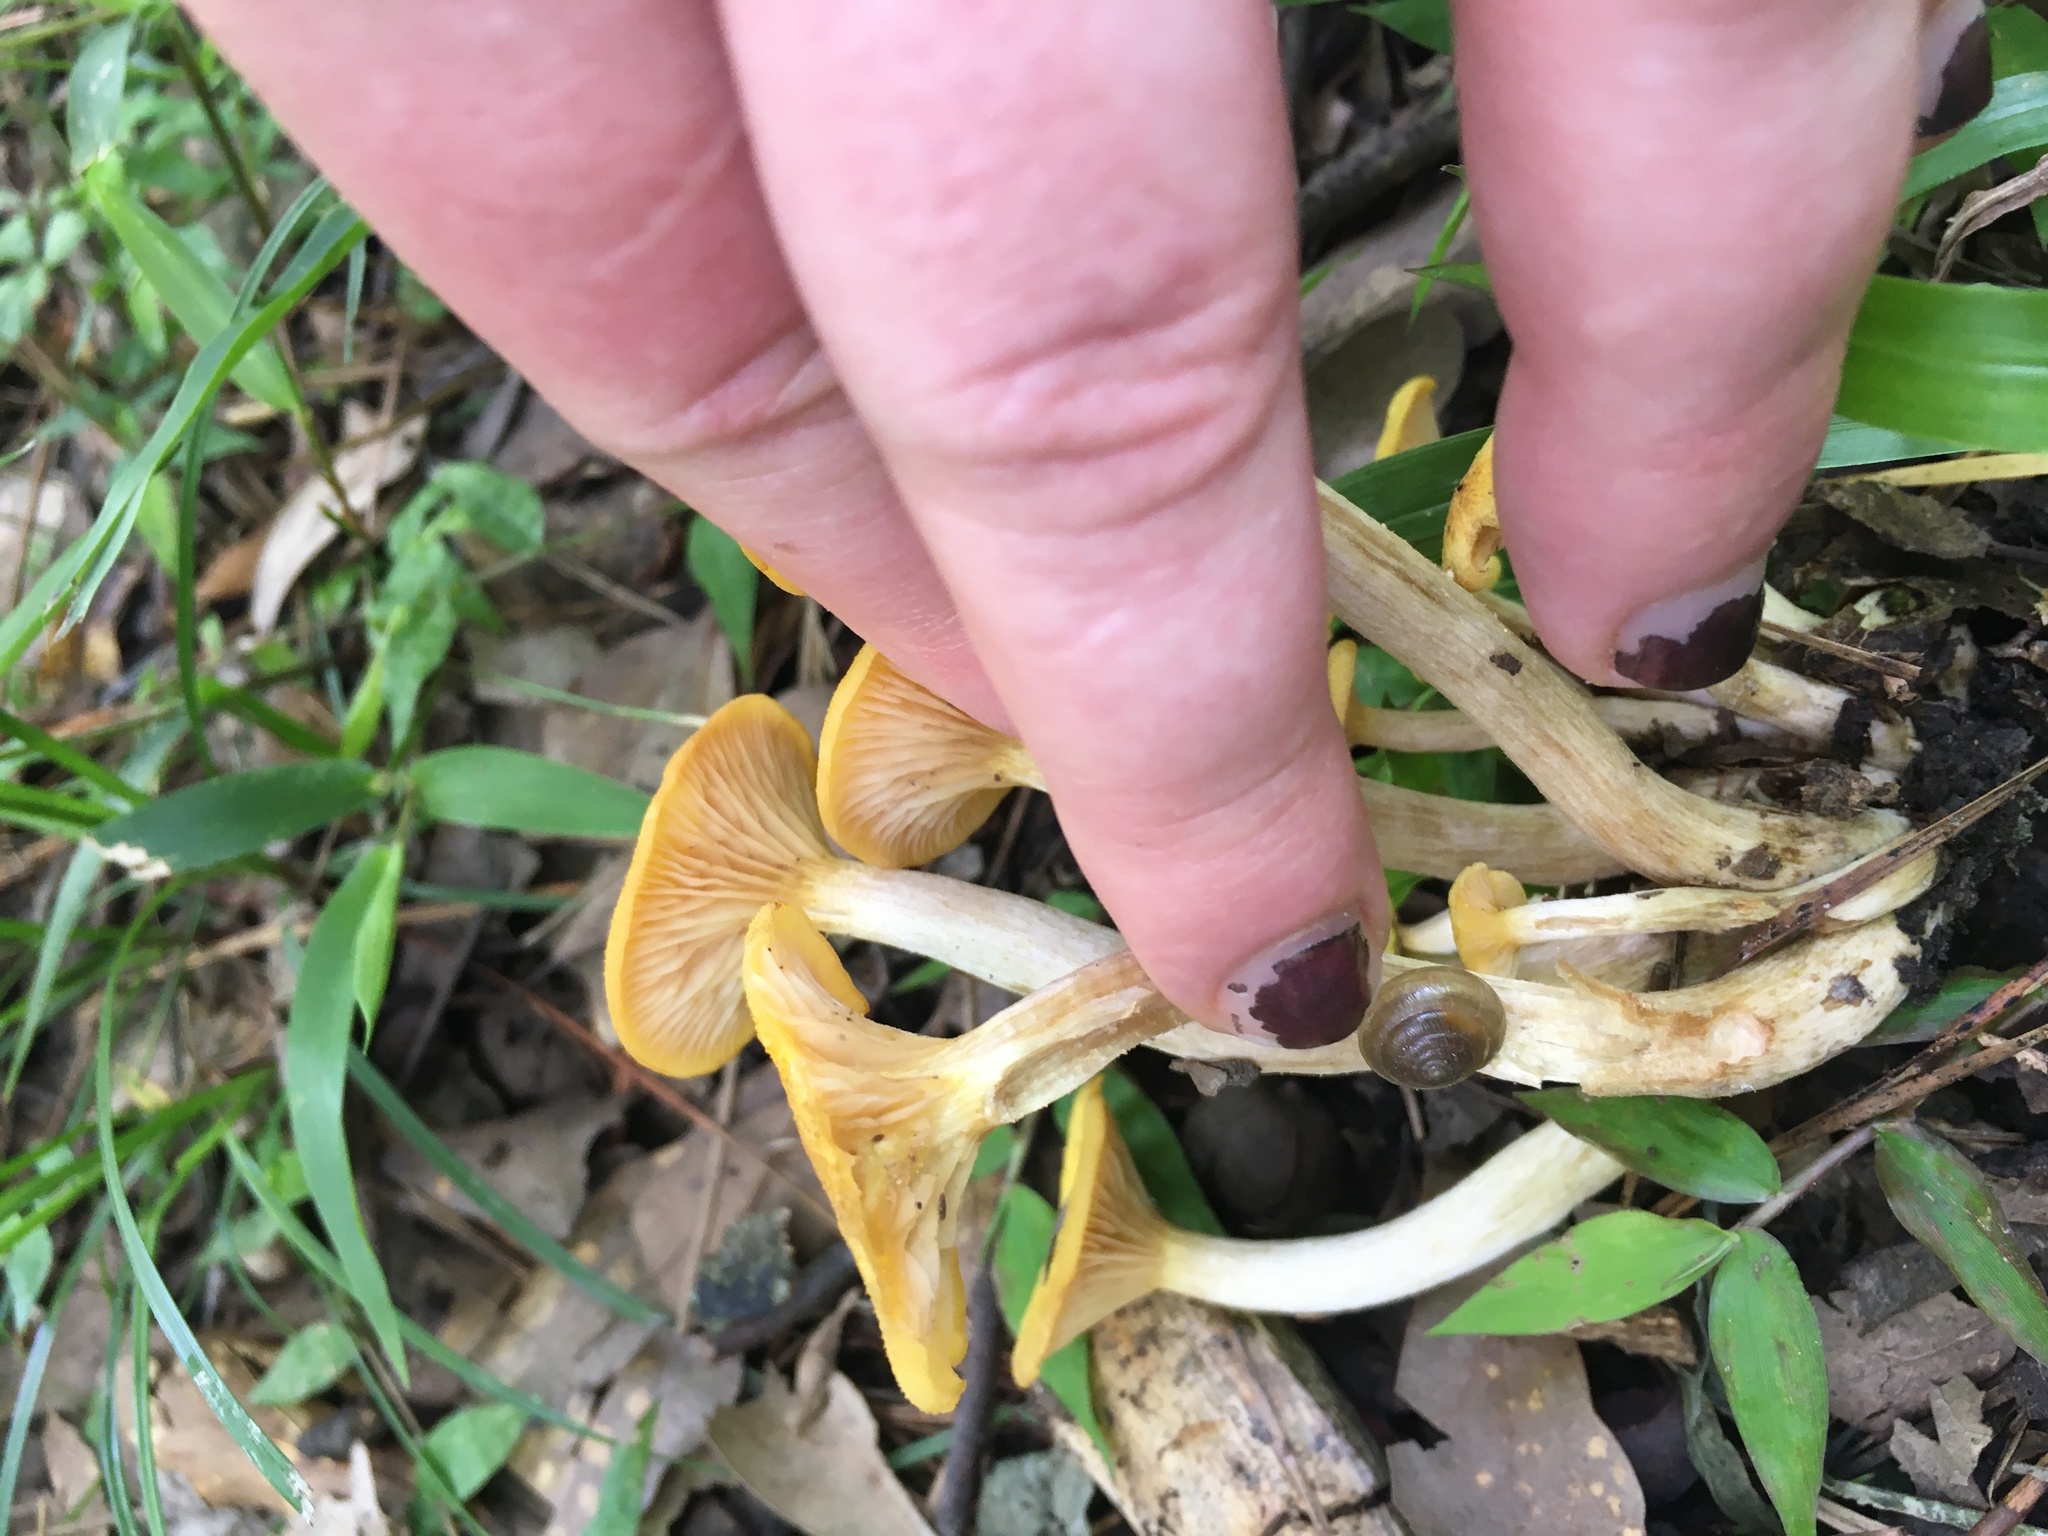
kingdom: Fungi
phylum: Basidiomycota
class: Agaricomycetes
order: Agaricales
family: Physalacriaceae
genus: Desarmillaria
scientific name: Desarmillaria caespitosa
